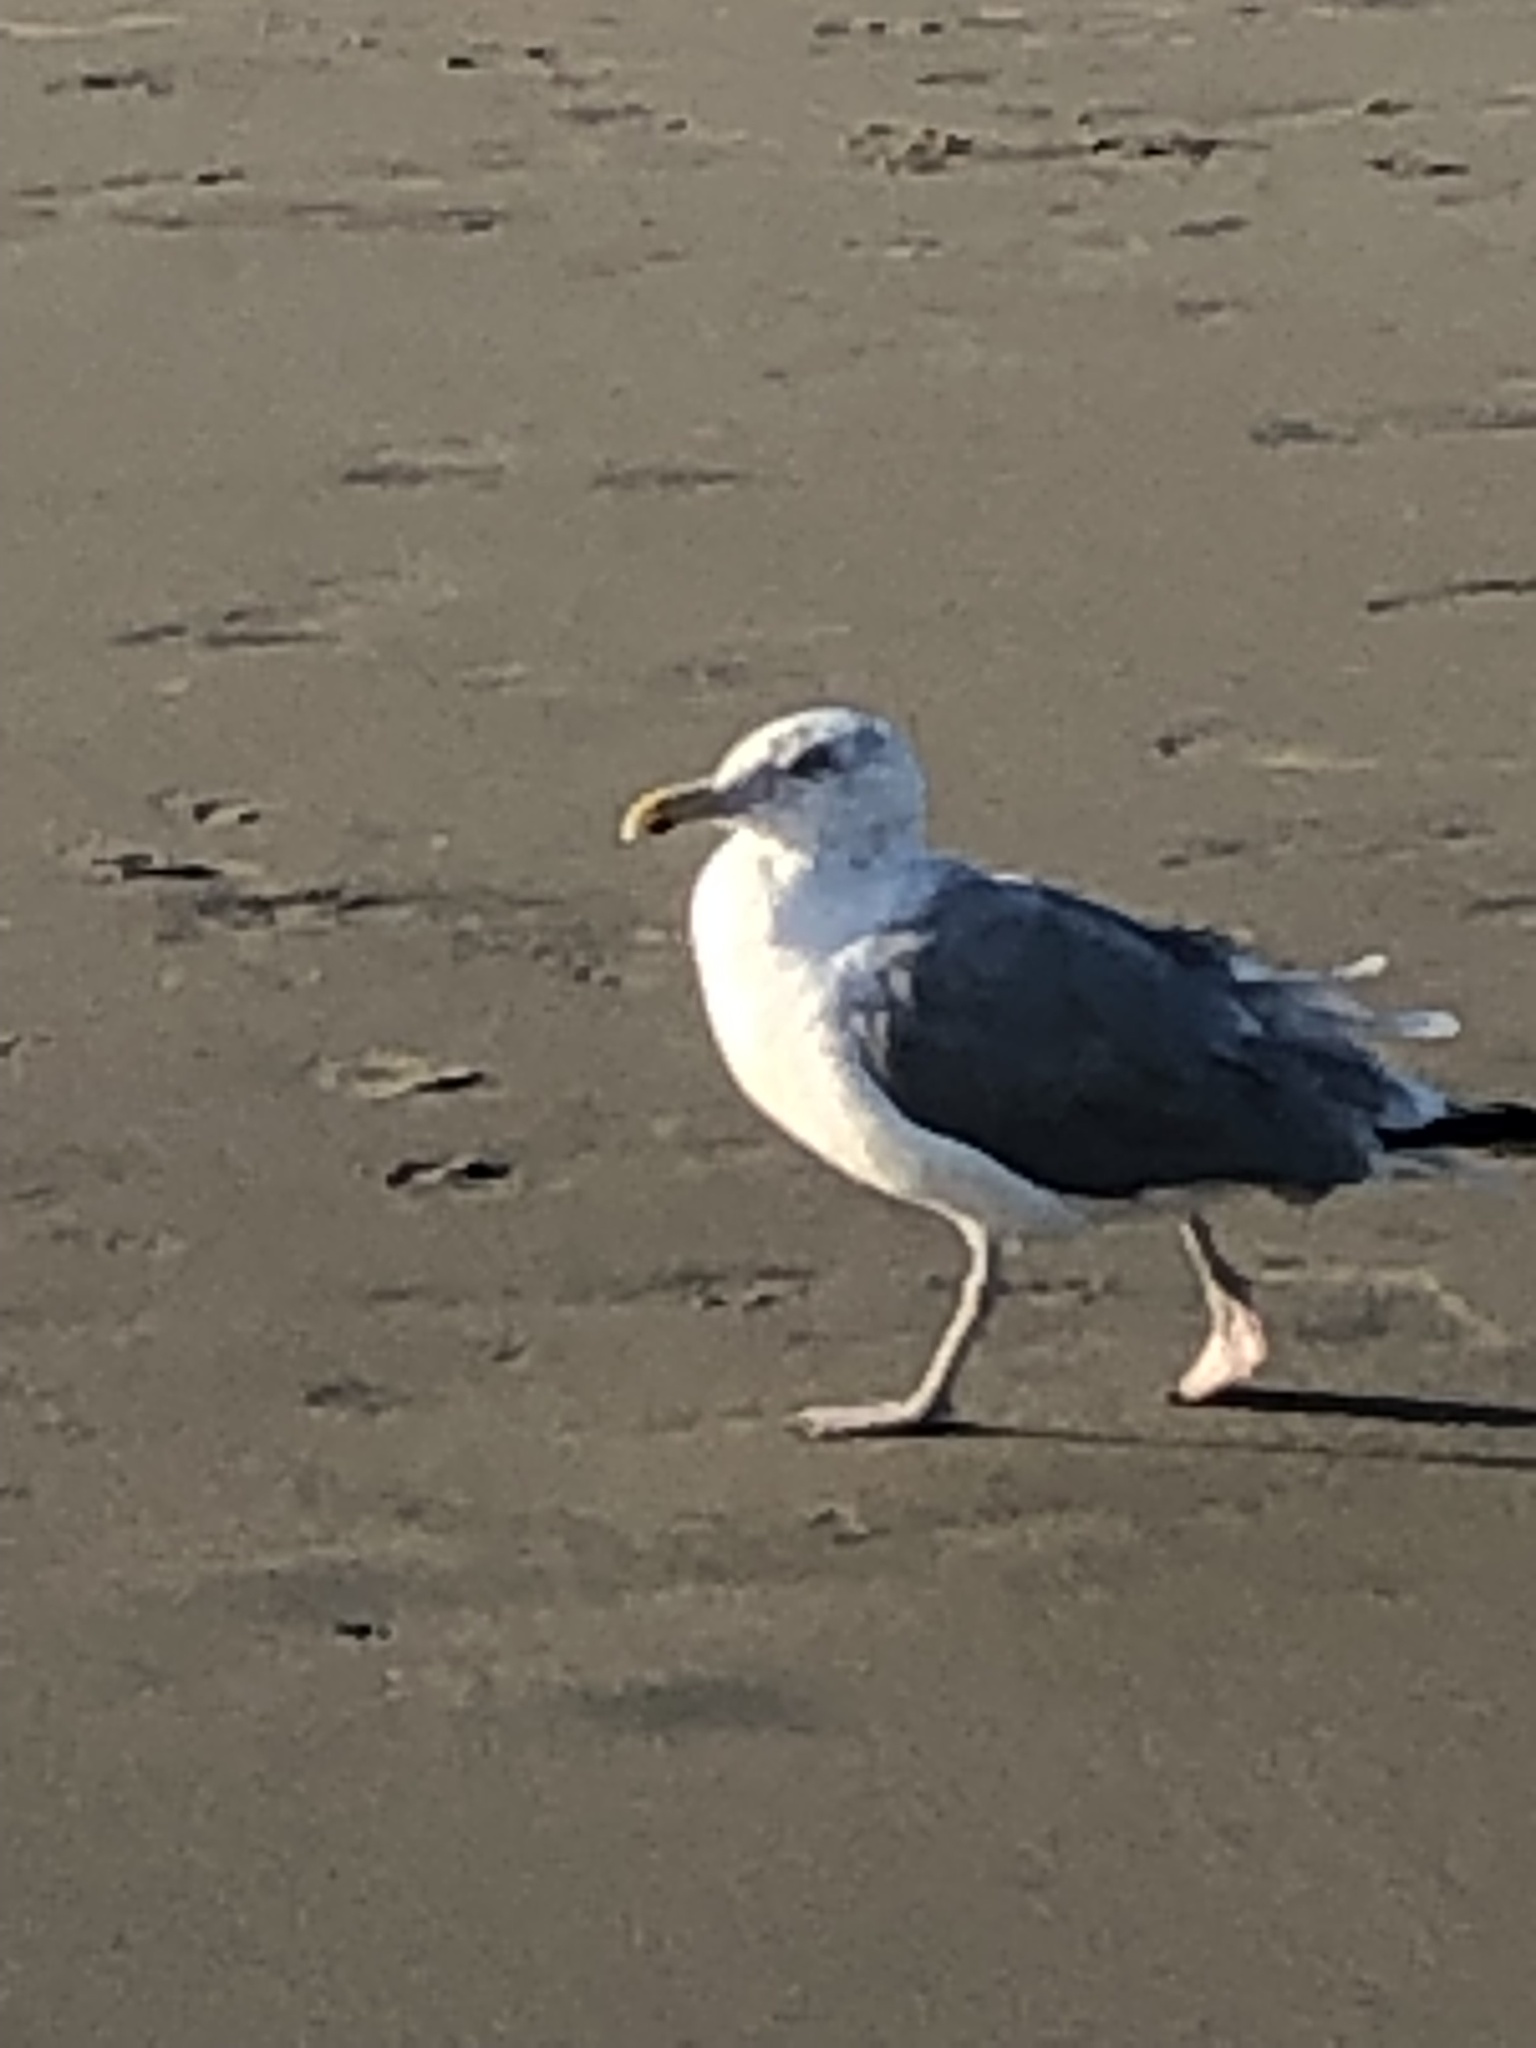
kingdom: Animalia
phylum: Chordata
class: Aves
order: Charadriiformes
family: Laridae
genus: Larus
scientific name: Larus argentatus
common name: Herring gull
